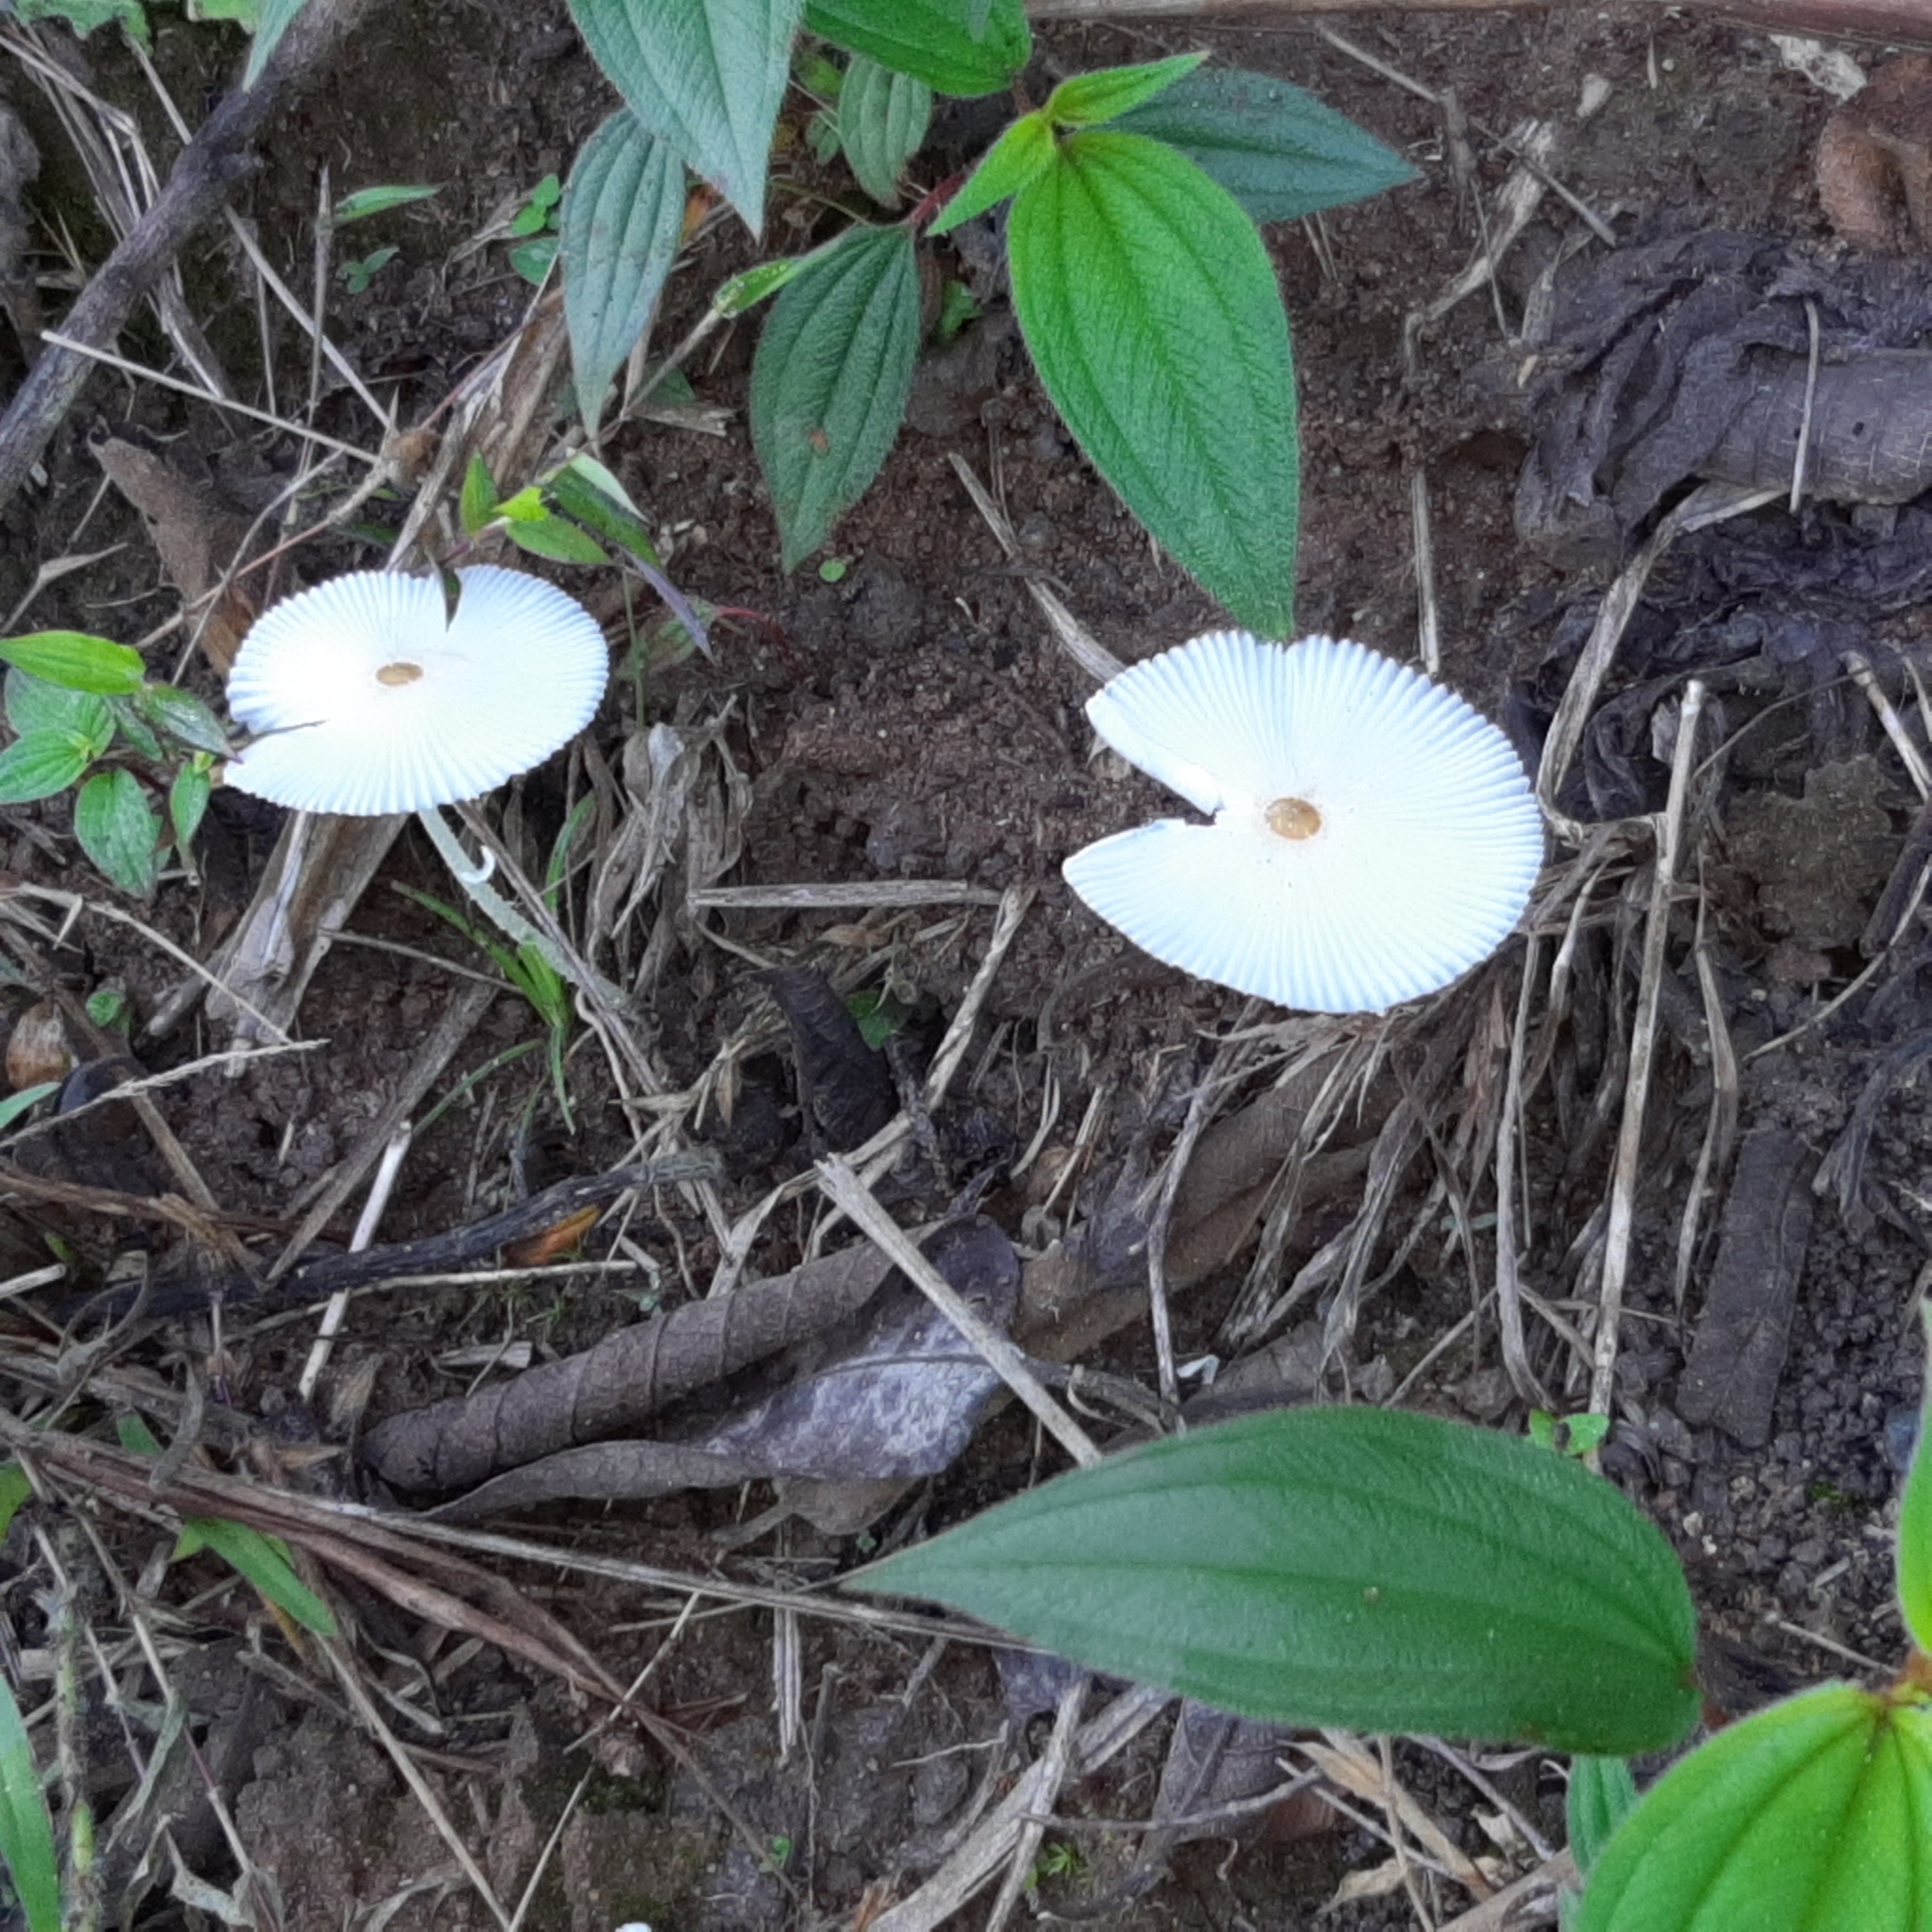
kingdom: Fungi
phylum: Basidiomycota
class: Agaricomycetes
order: Agaricales
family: Agaricaceae
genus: Leucocoprinus
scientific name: Leucocoprinus fragilissimus
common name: Fragile dapperling
